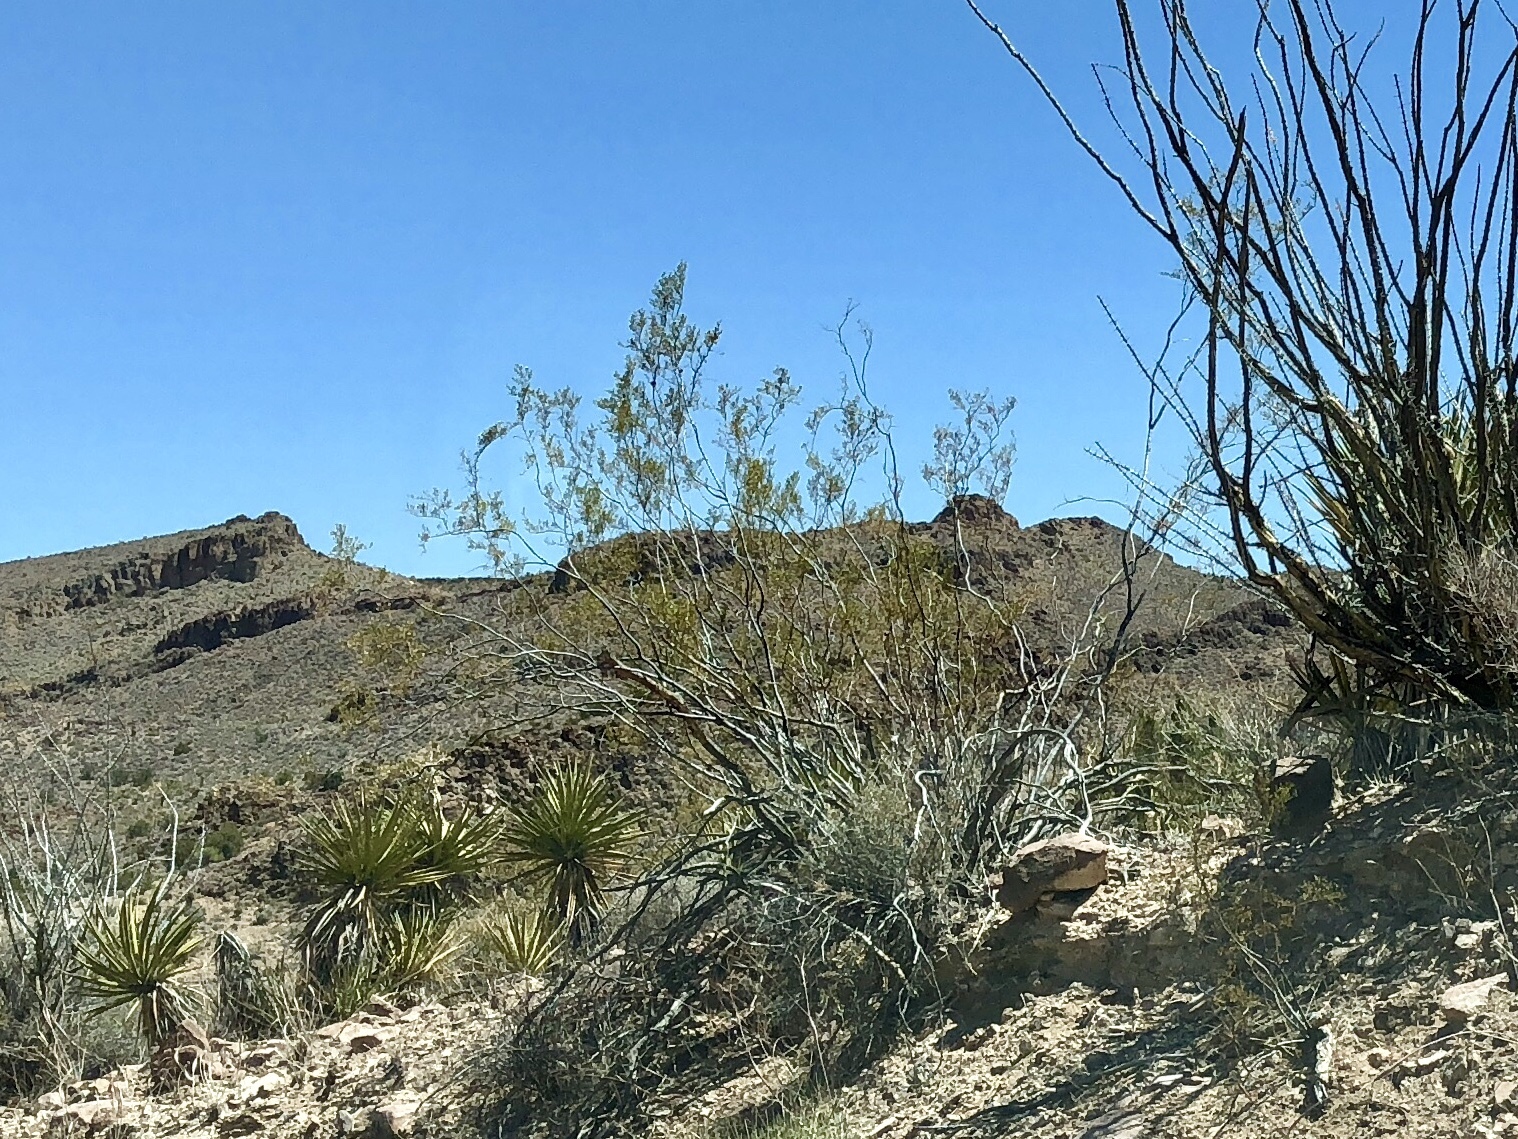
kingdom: Plantae
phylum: Tracheophyta
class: Magnoliopsida
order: Zygophyllales
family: Zygophyllaceae
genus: Larrea
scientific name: Larrea tridentata
